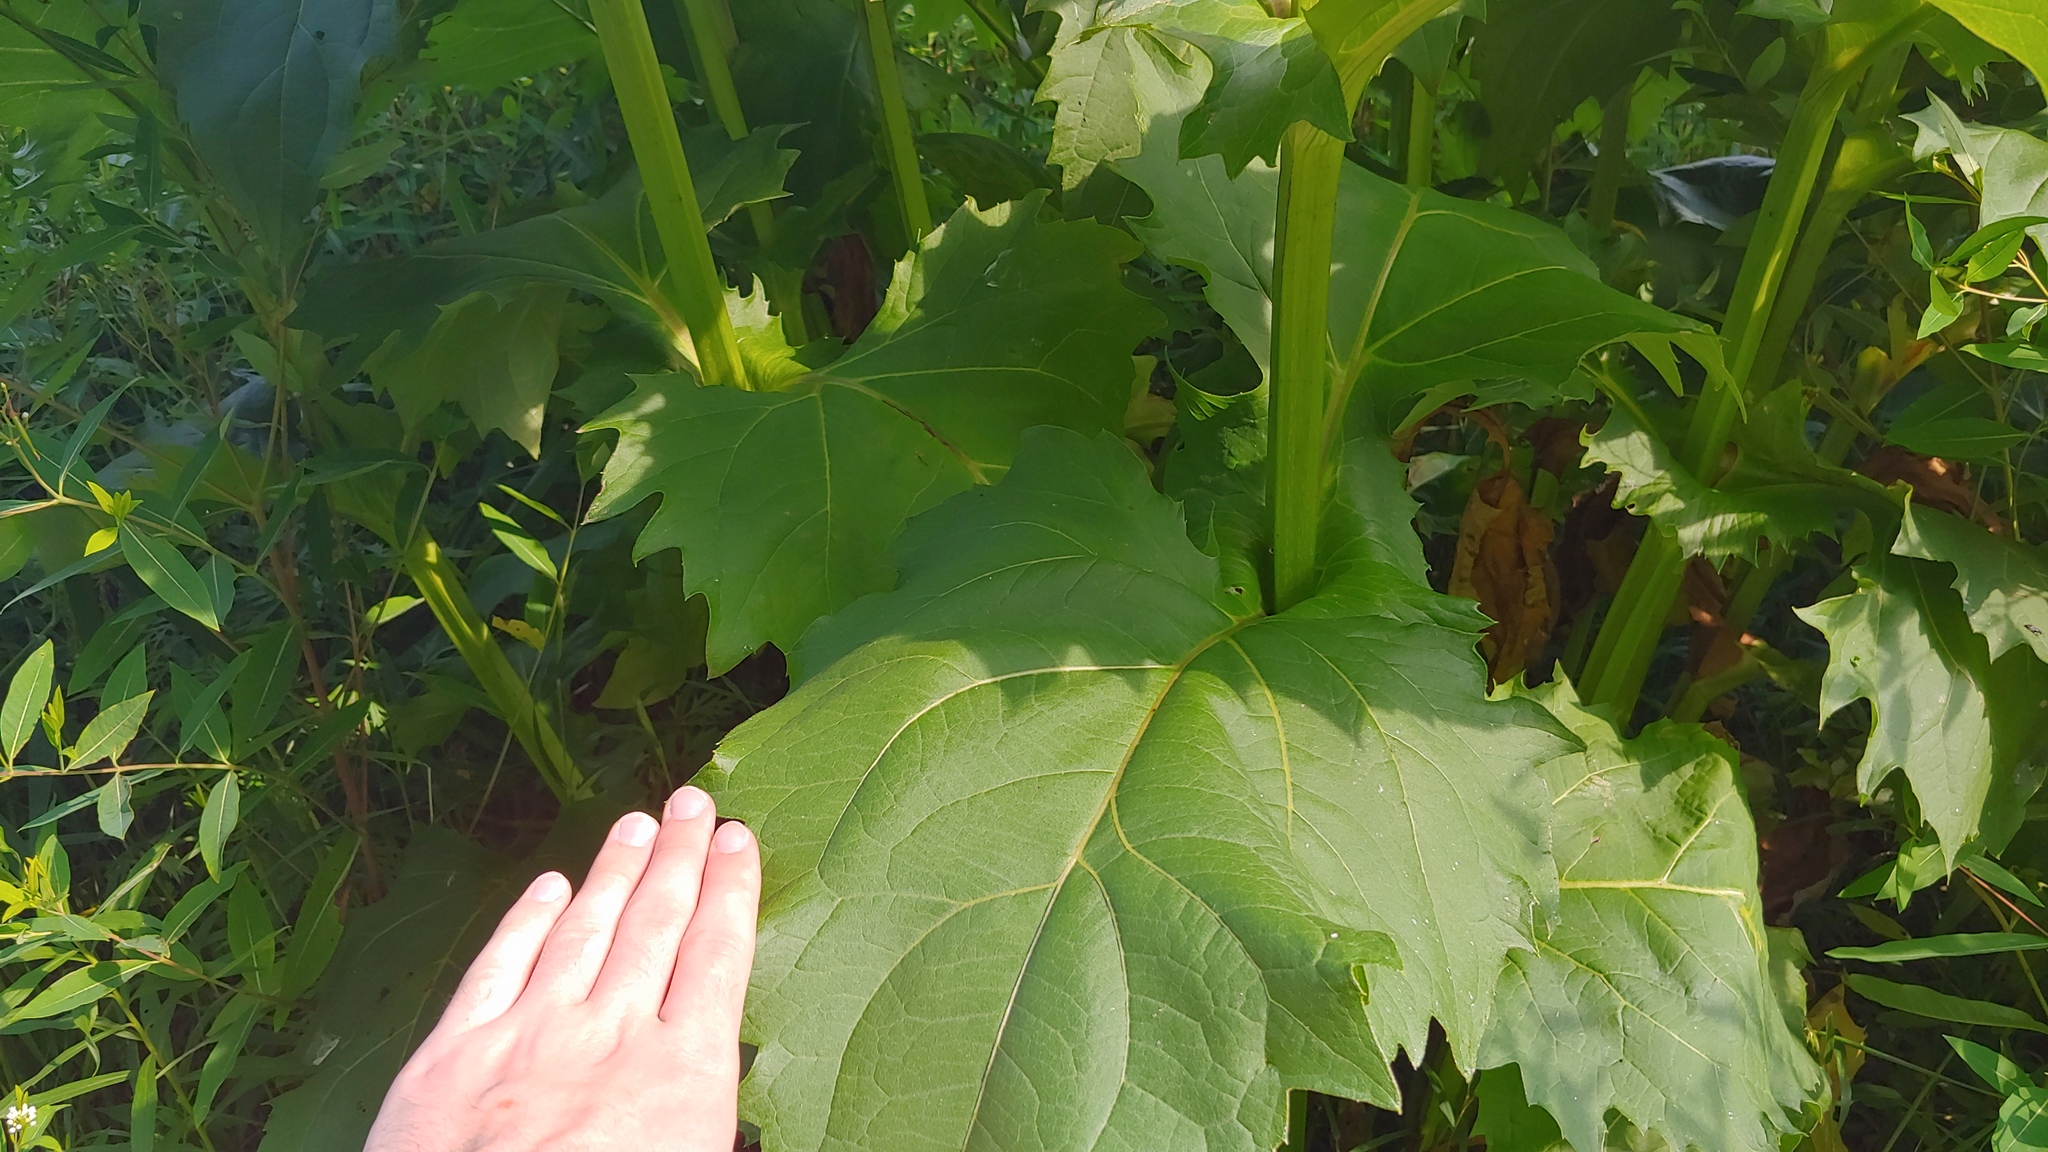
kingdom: Plantae
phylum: Tracheophyta
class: Magnoliopsida
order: Asterales
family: Asteraceae
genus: Silphium
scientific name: Silphium perfoliatum
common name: Cup-plant
